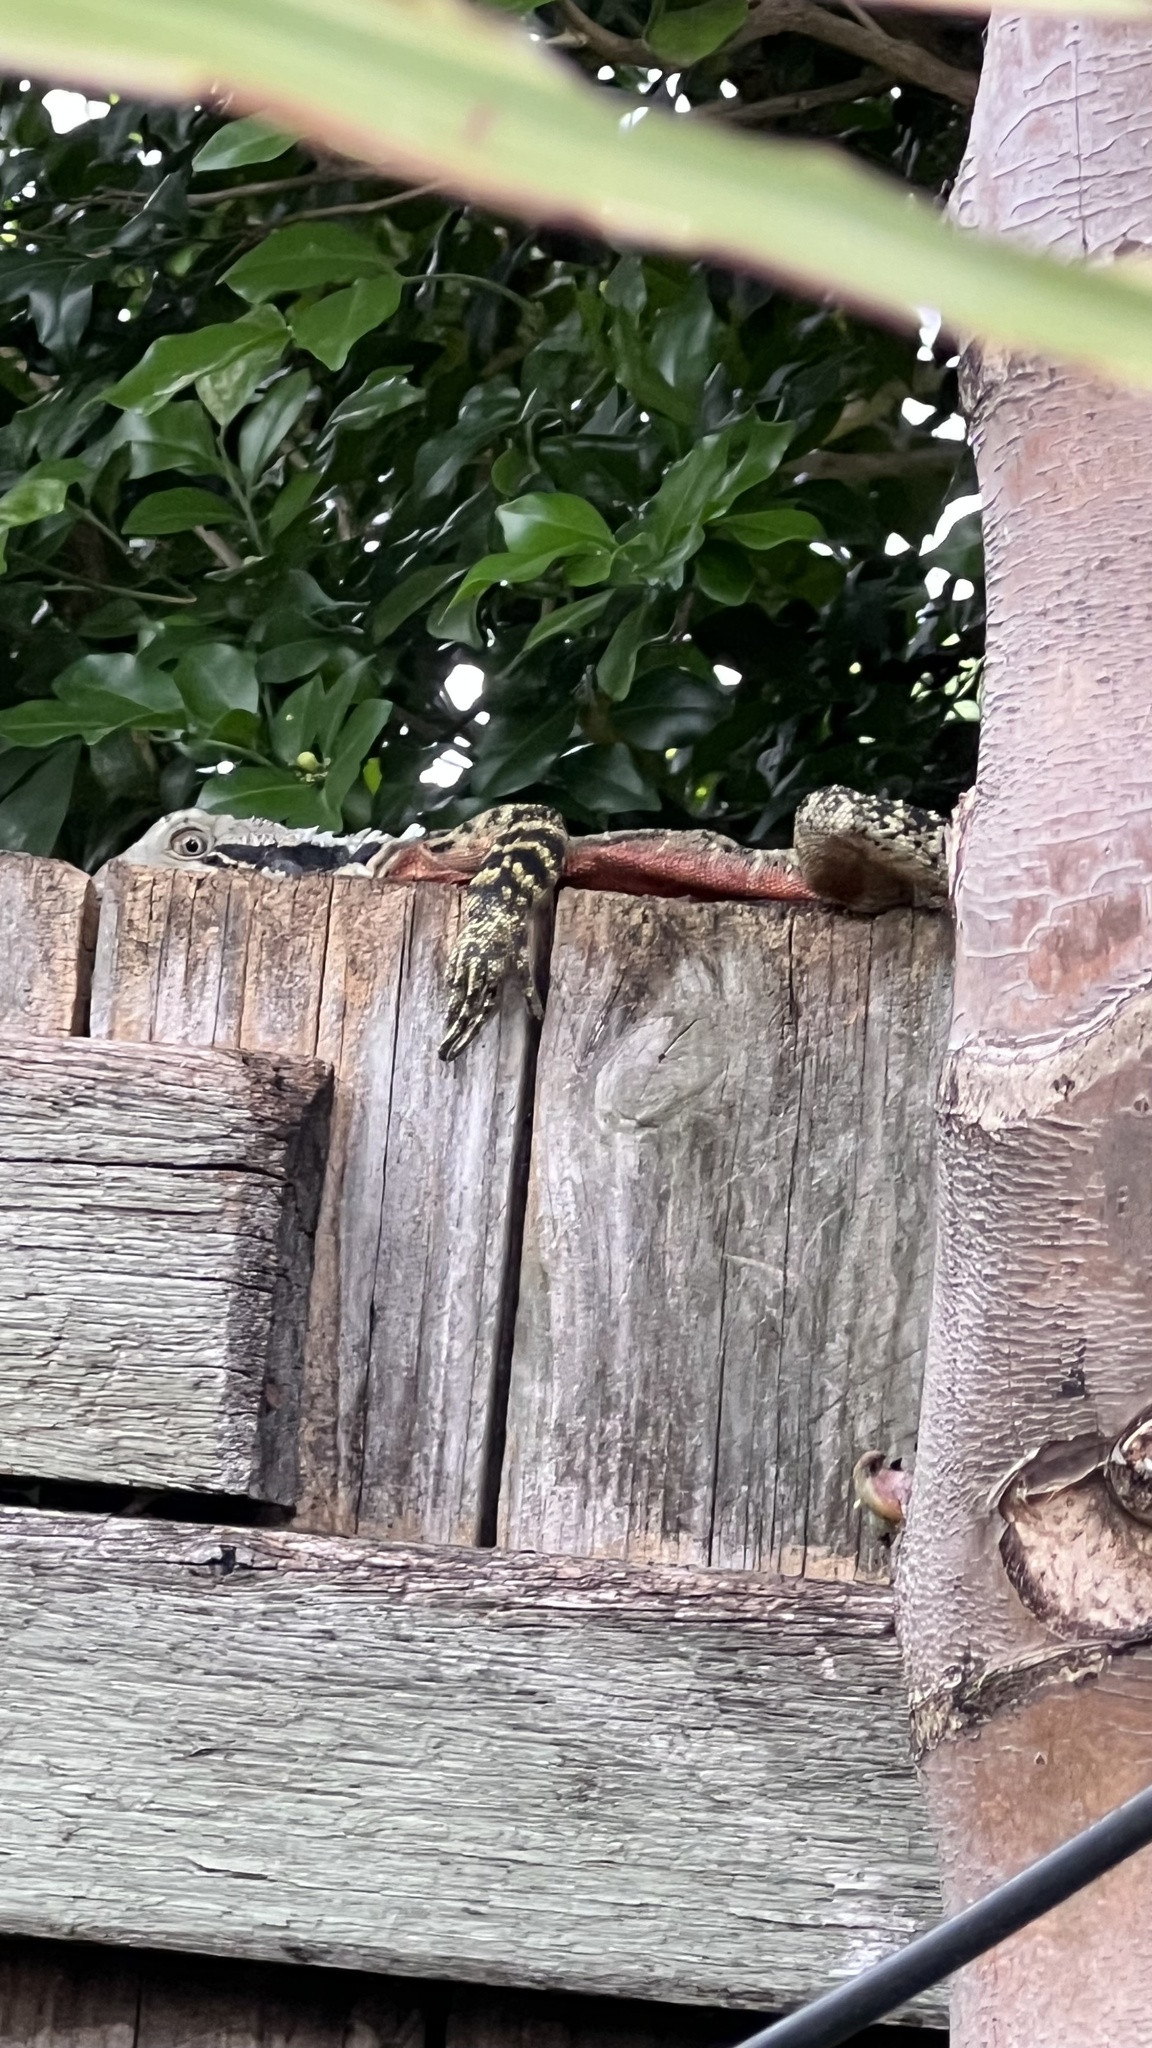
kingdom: Animalia
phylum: Chordata
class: Squamata
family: Agamidae
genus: Intellagama
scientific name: Intellagama lesueurii
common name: Eastern water dragon
